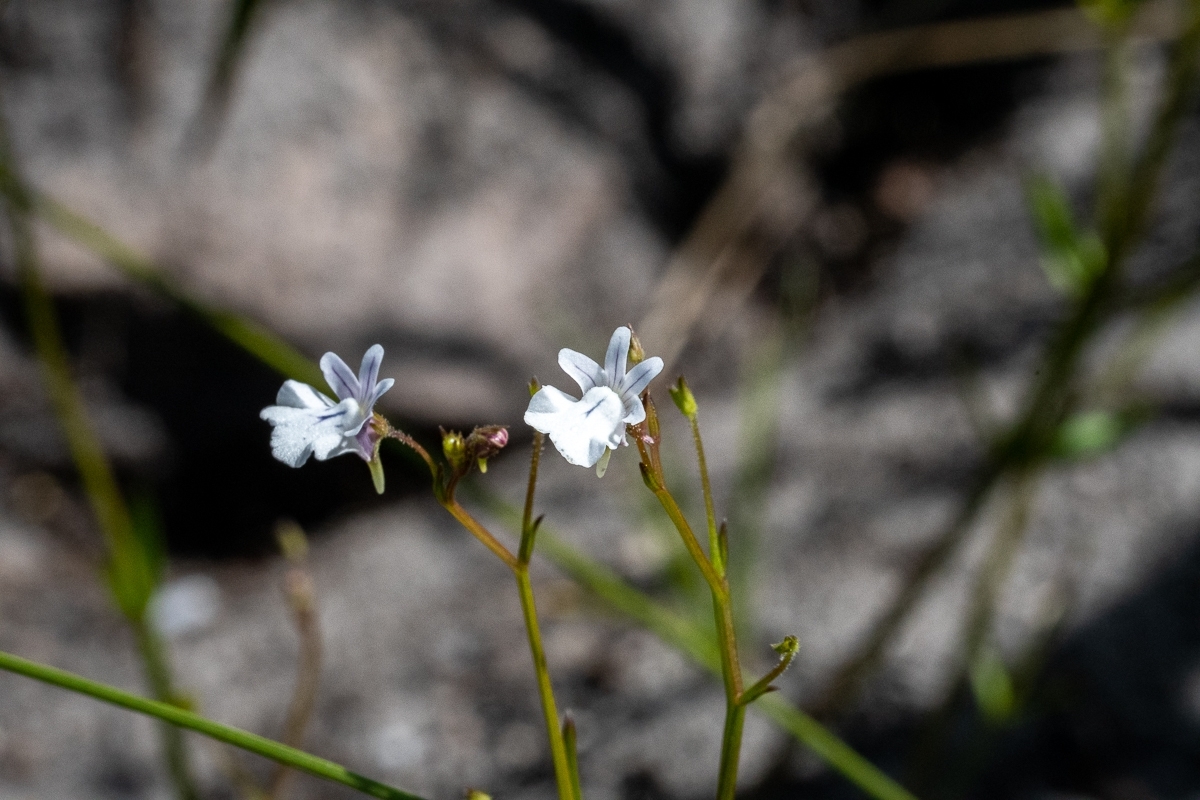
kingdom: Plantae
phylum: Tracheophyta
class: Magnoliopsida
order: Lamiales
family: Scrophulariaceae
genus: Nemesia
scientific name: Nemesia diffusa
